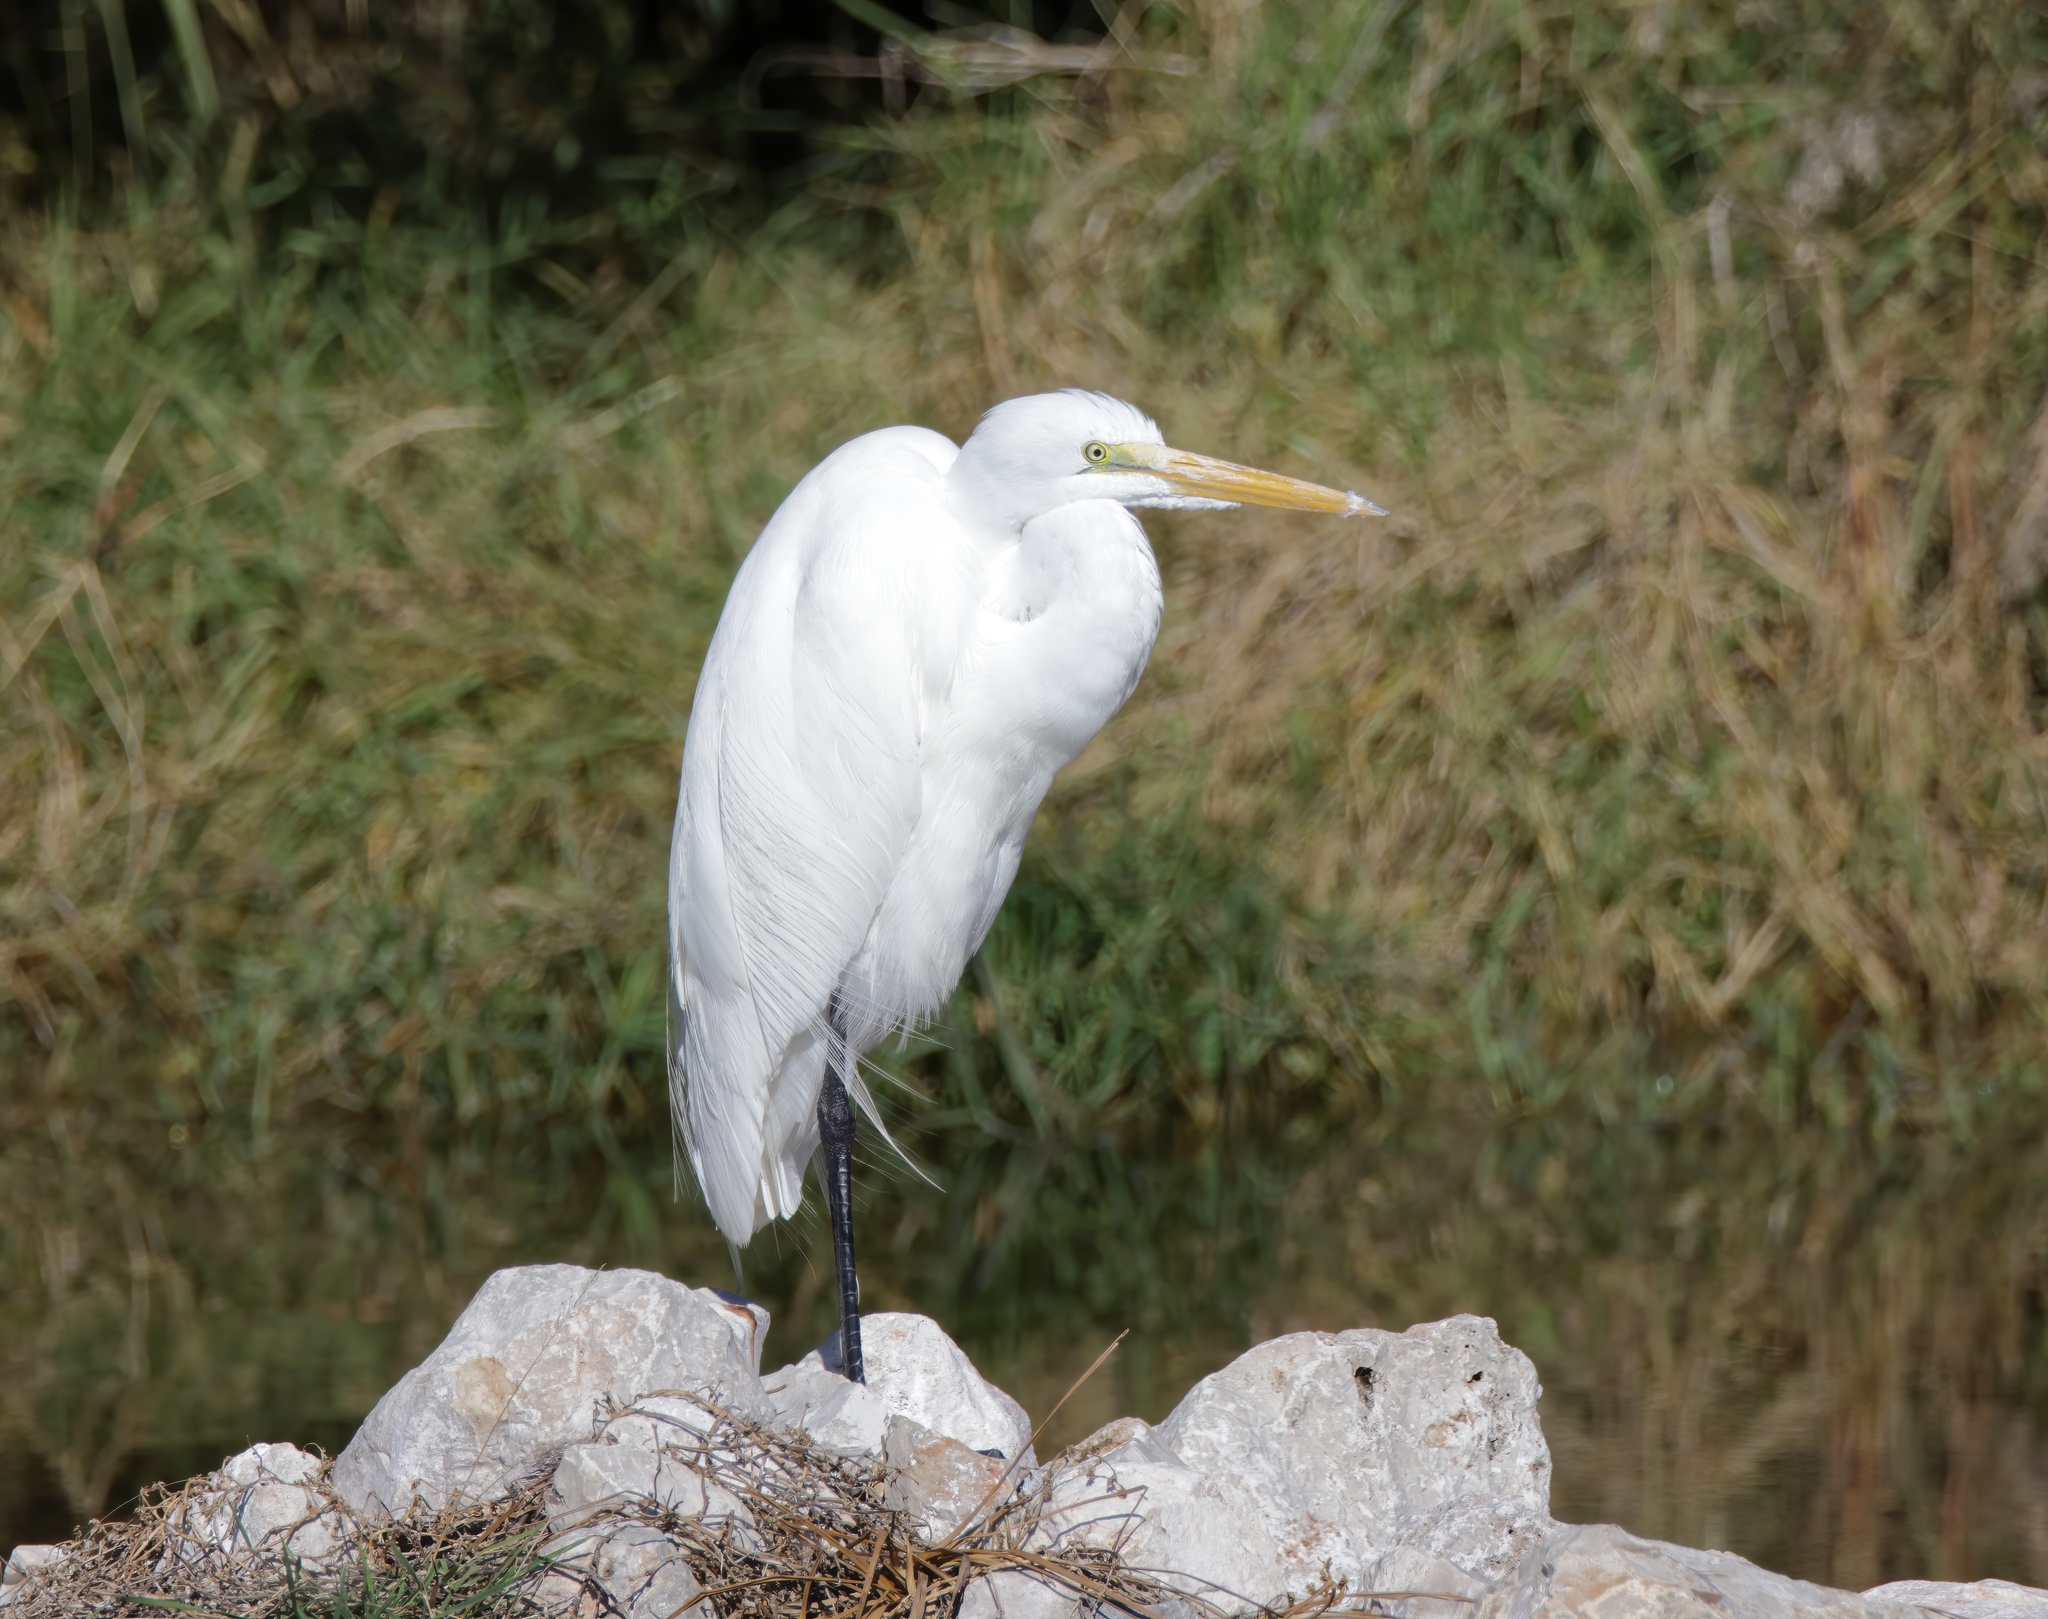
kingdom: Animalia
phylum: Chordata
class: Aves
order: Pelecaniformes
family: Ardeidae
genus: Ardea
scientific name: Ardea alba
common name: Great egret
